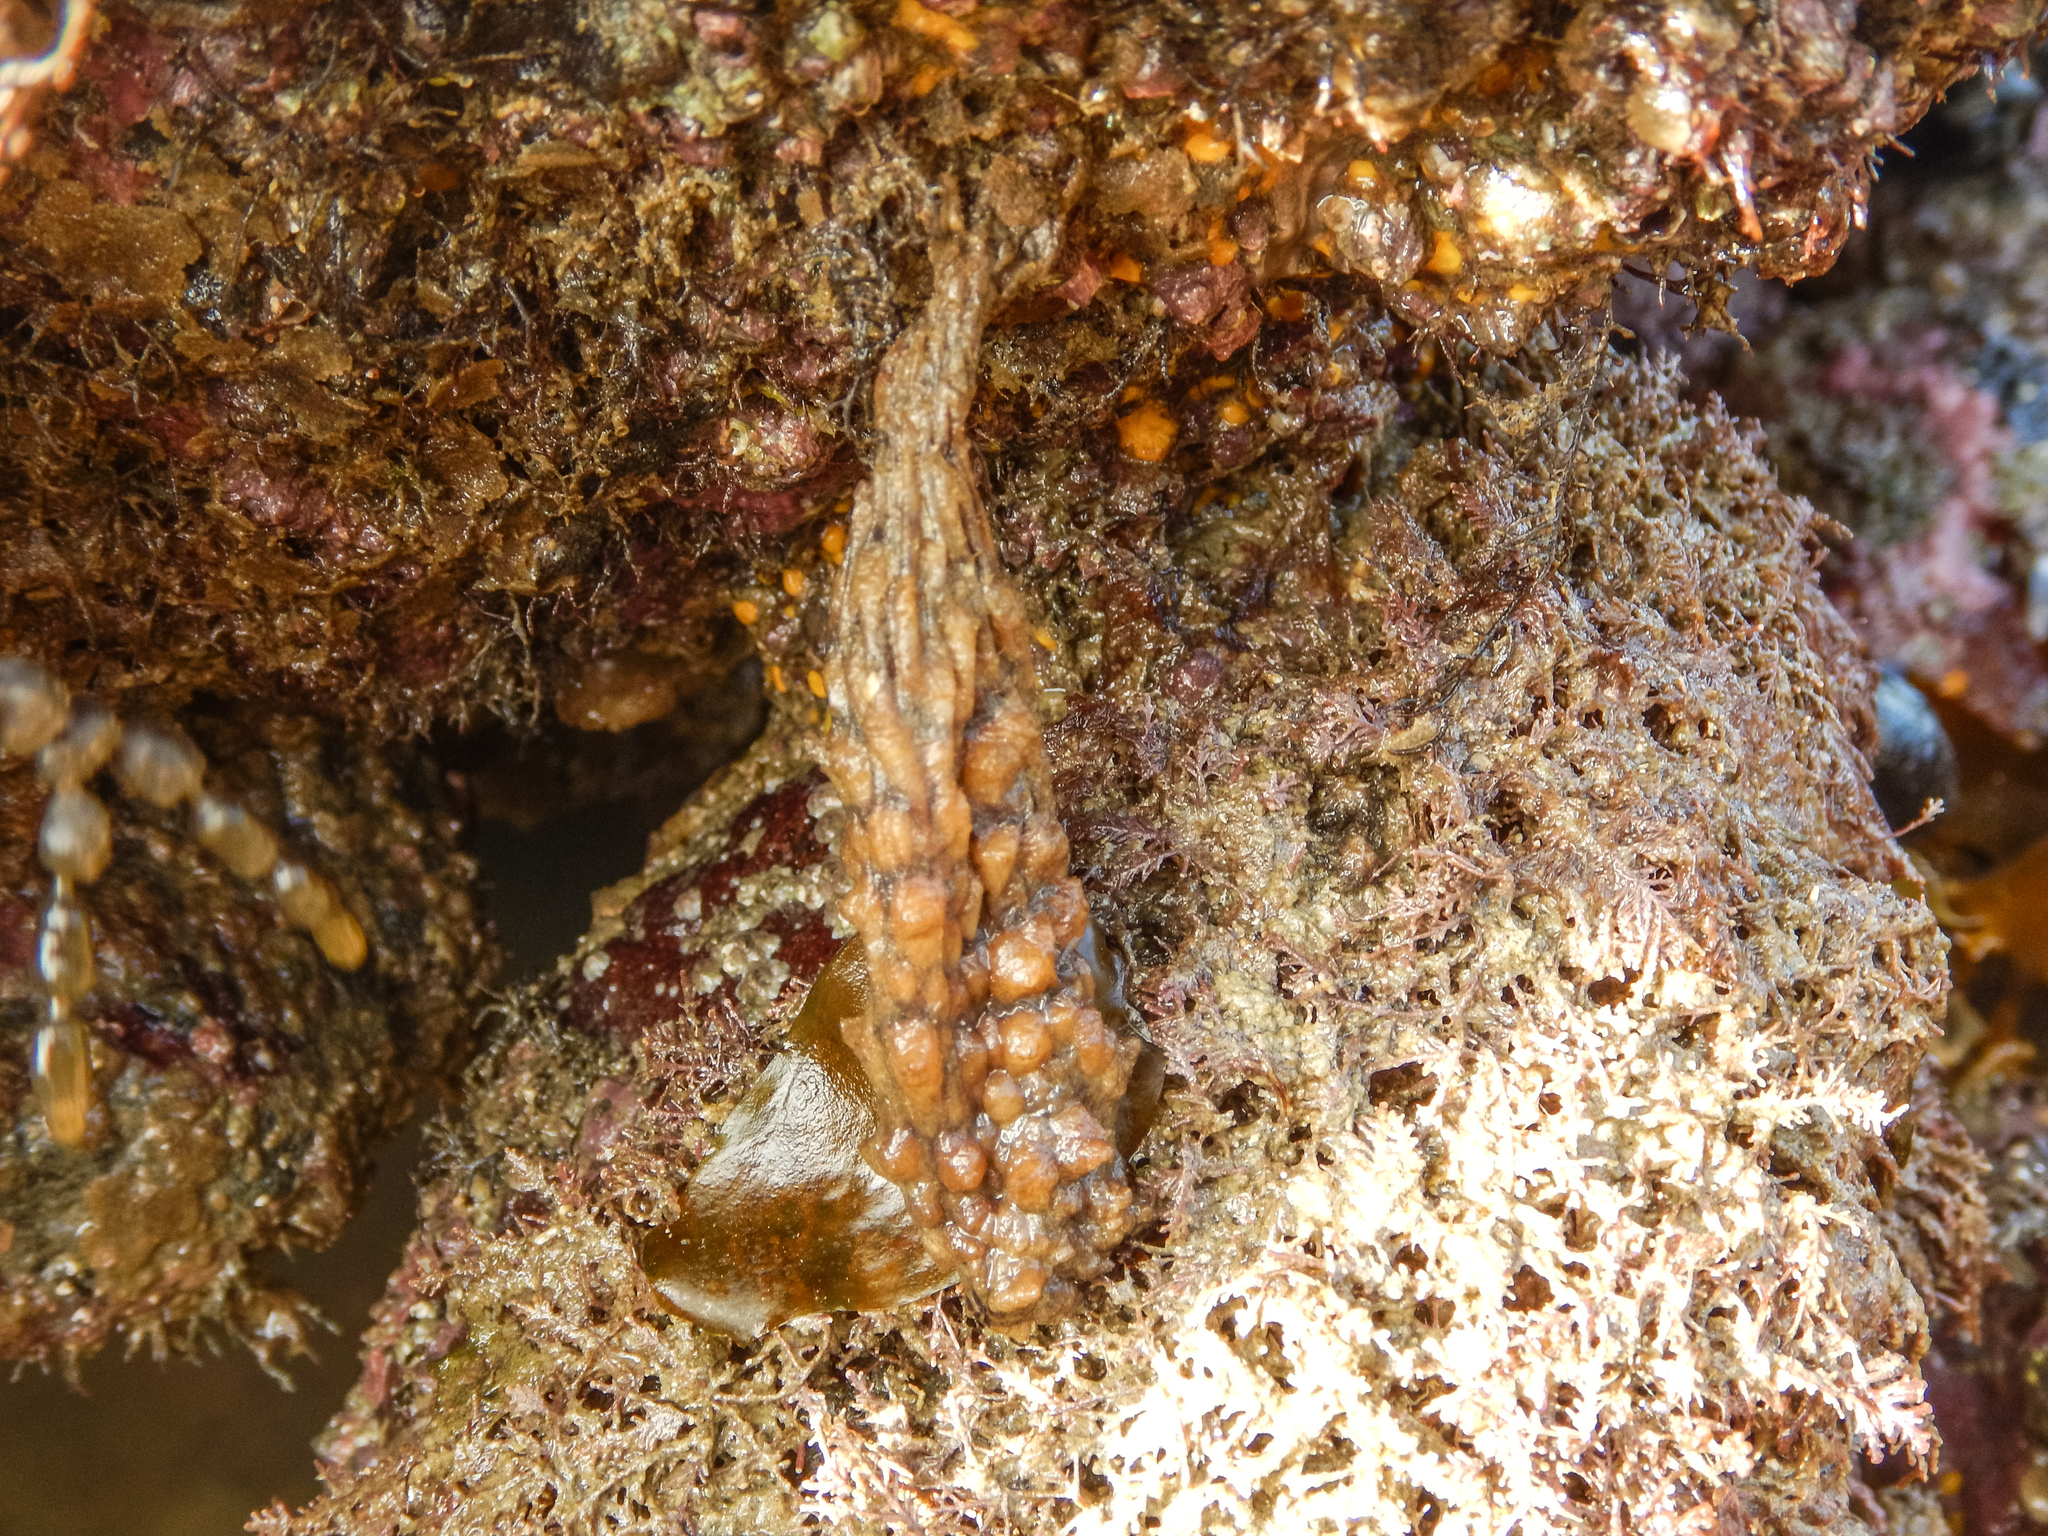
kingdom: Animalia
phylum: Chordata
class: Ascidiacea
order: Stolidobranchia
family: Styelidae
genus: Styela
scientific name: Styela clava
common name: Leathery sea squirt
